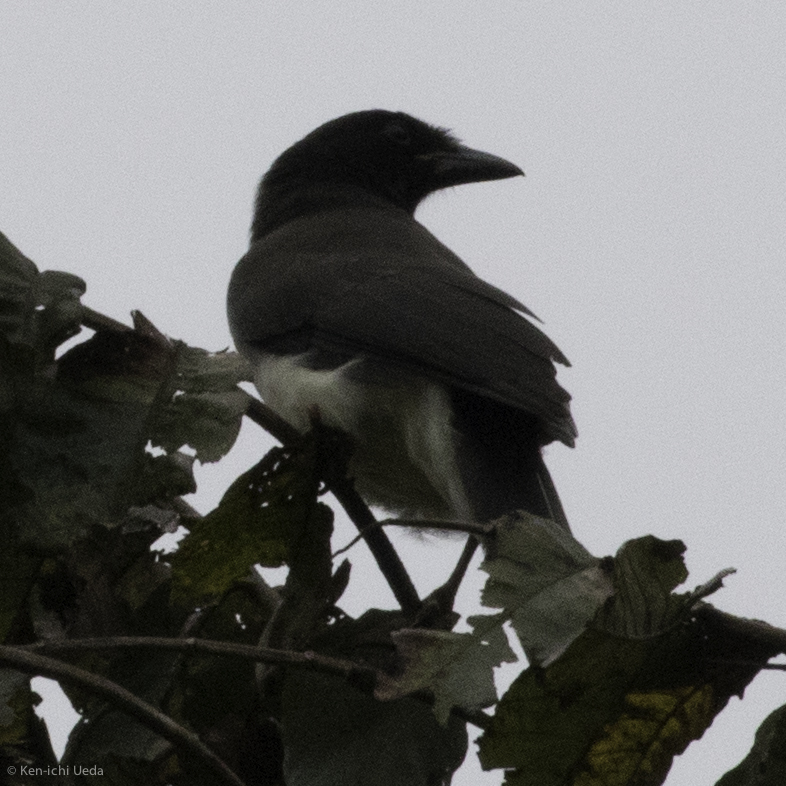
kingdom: Animalia
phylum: Chordata
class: Aves
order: Passeriformes
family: Corvidae
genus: Psilorhinus
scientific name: Psilorhinus morio
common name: Brown jay
